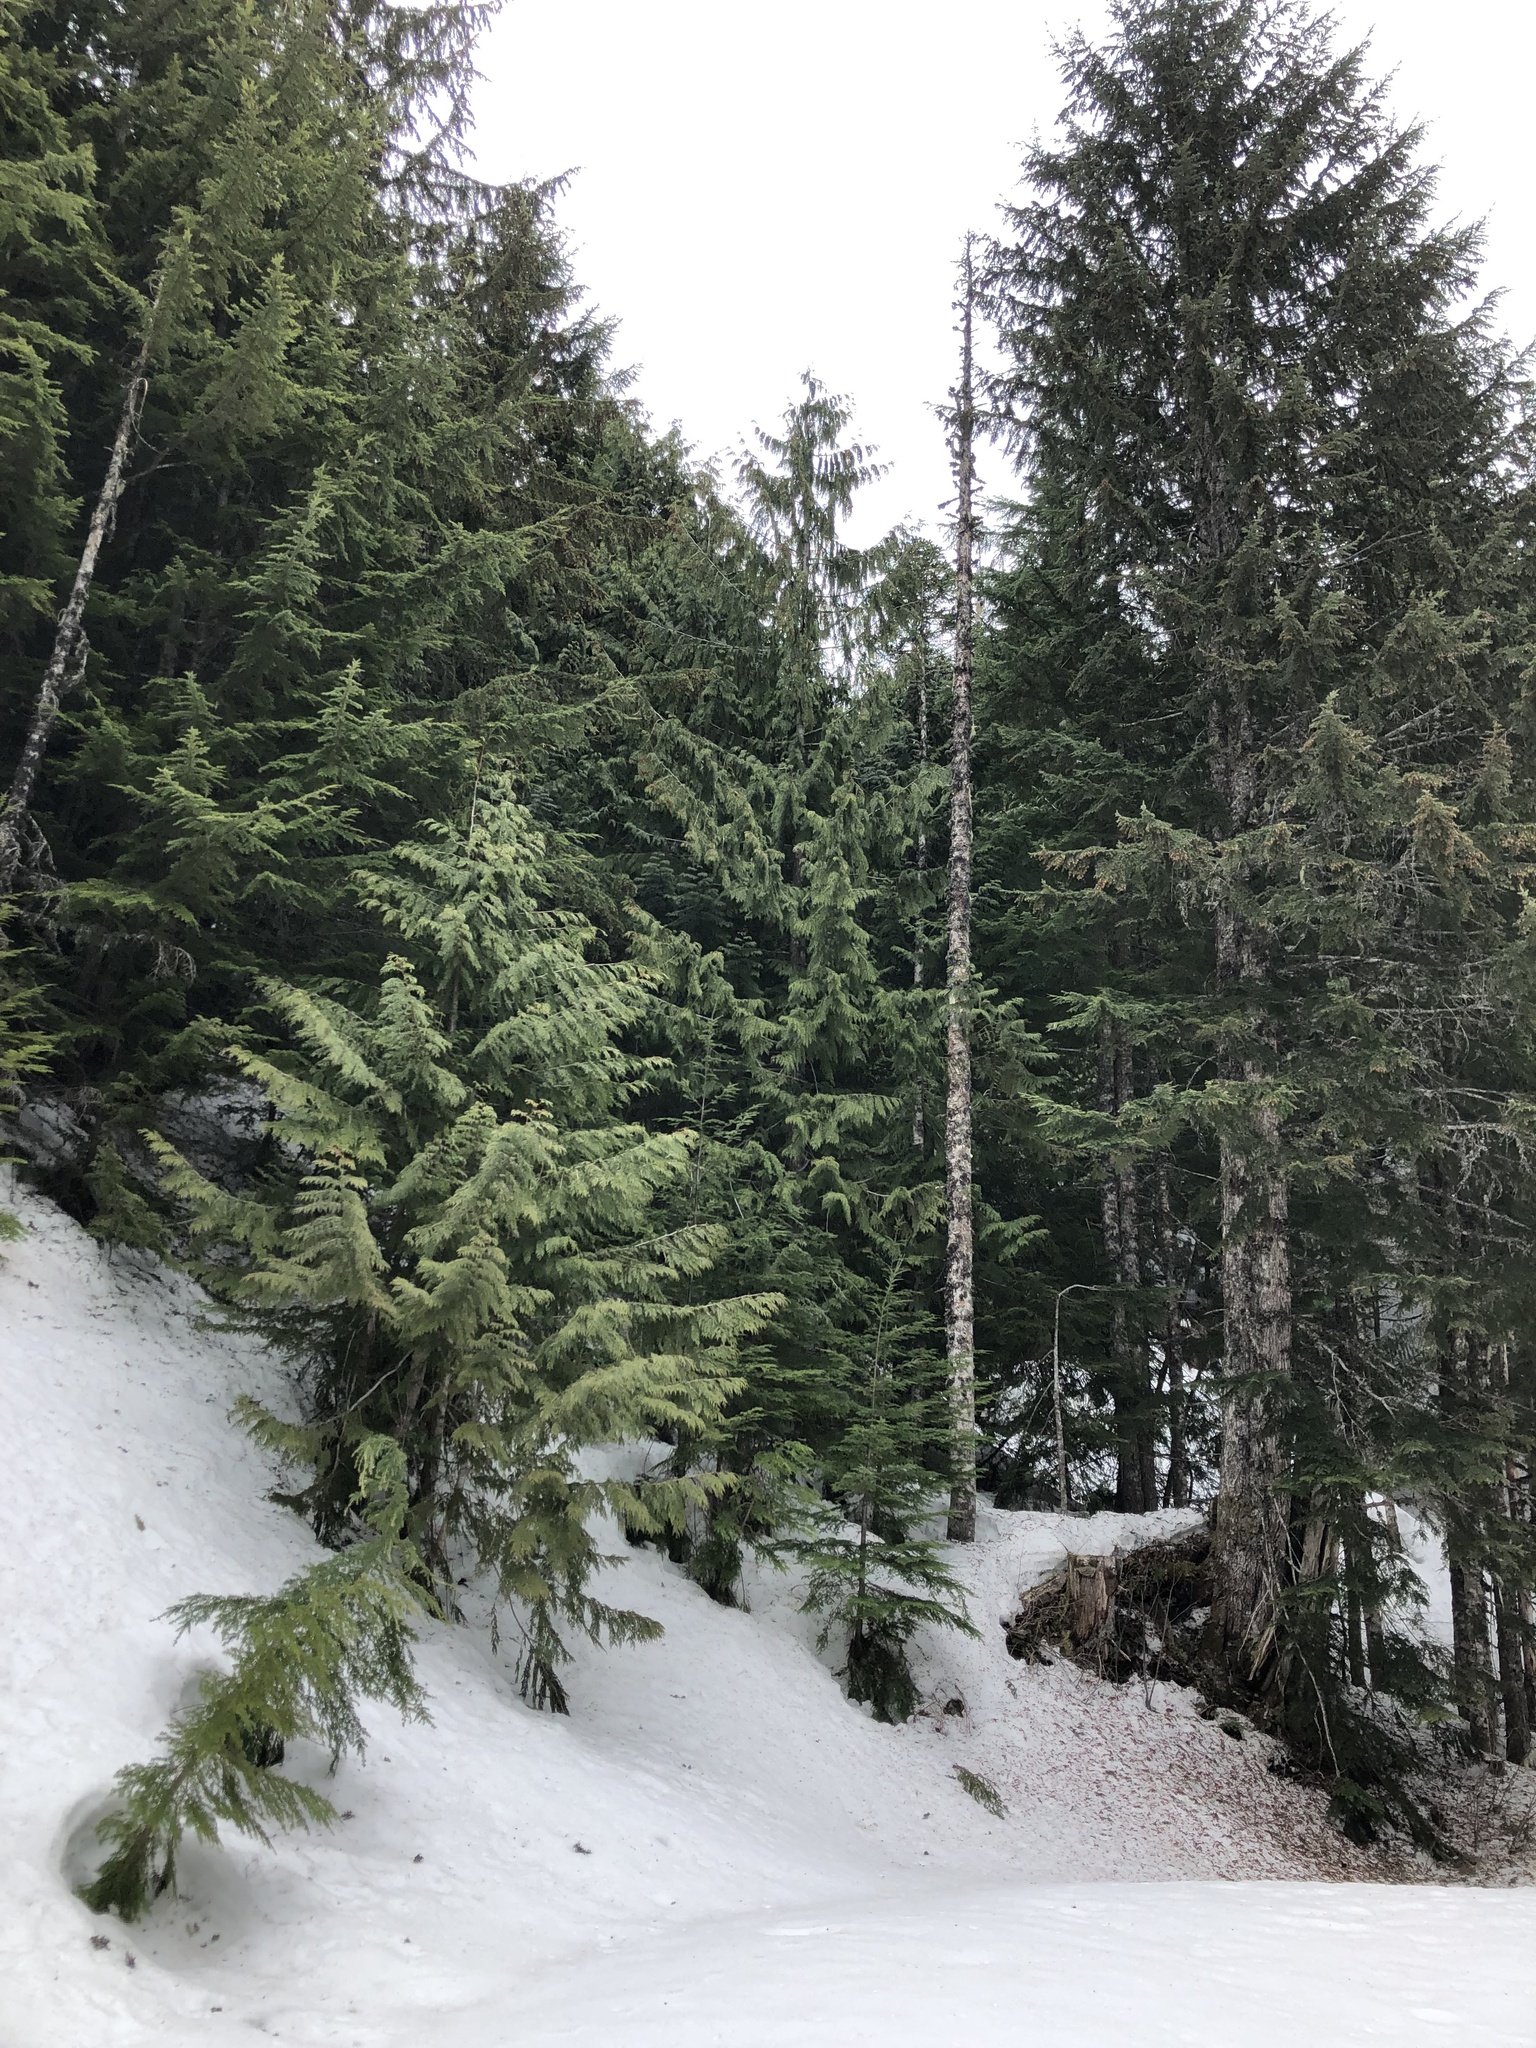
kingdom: Plantae
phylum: Tracheophyta
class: Pinopsida
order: Pinales
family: Cupressaceae
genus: Thuja
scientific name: Thuja plicata
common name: Western red-cedar
